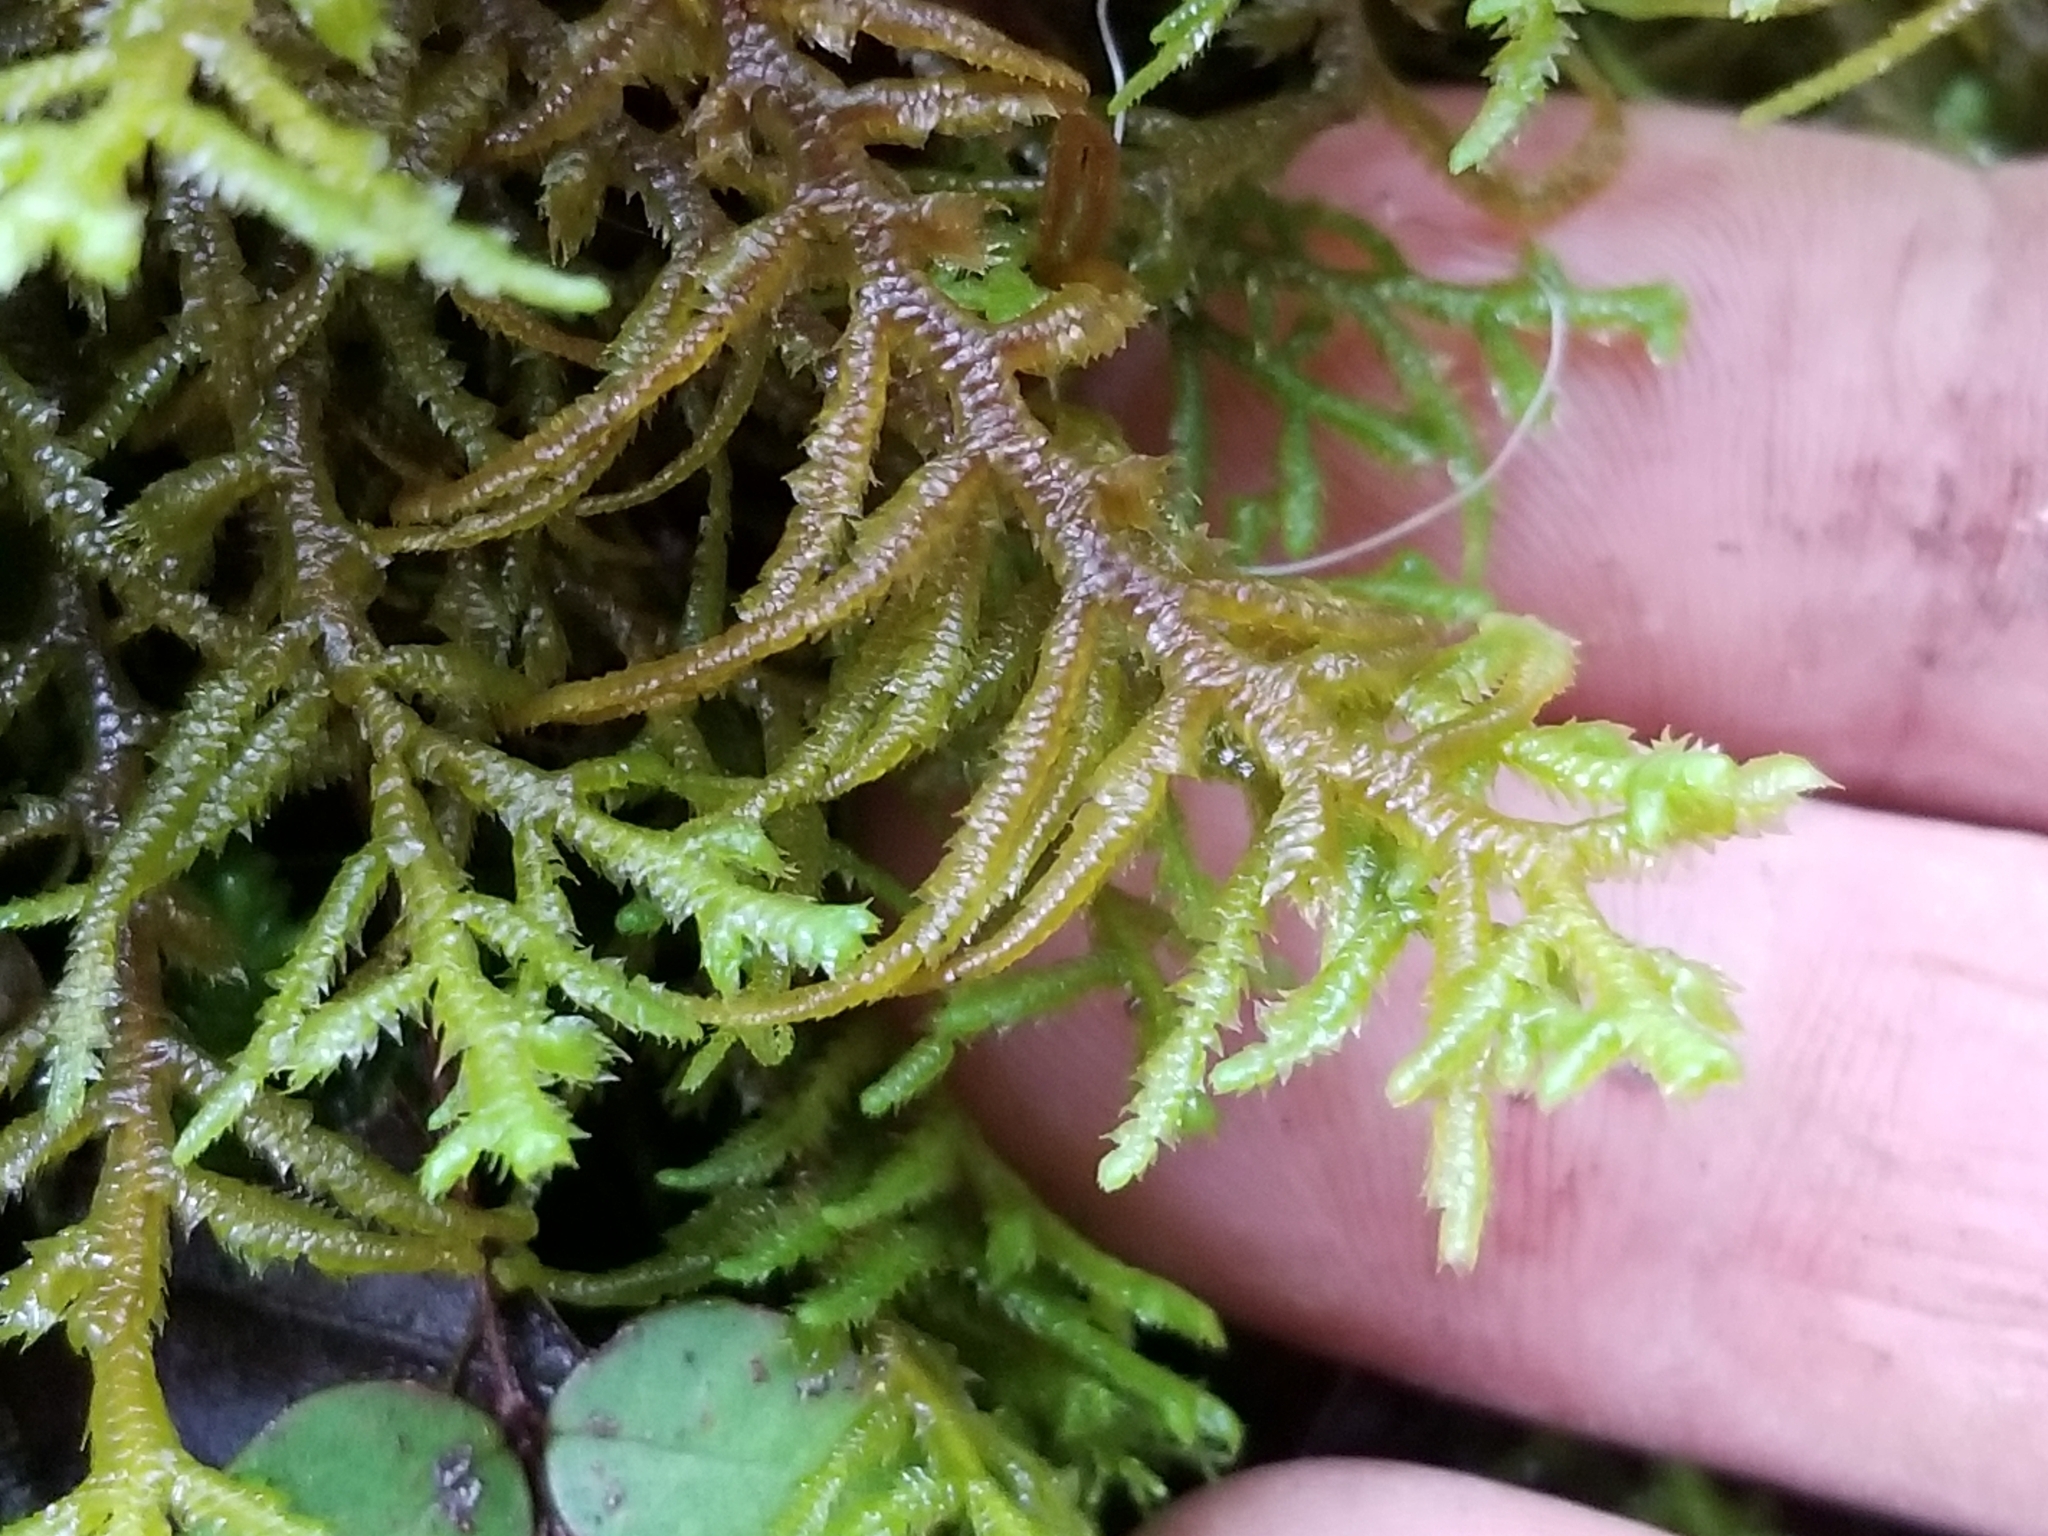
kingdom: Plantae
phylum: Marchantiophyta
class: Jungermanniopsida
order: Jungermanniales
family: Mastigophoraceae
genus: Dendromastigophora
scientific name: Dendromastigophora flagellifera
